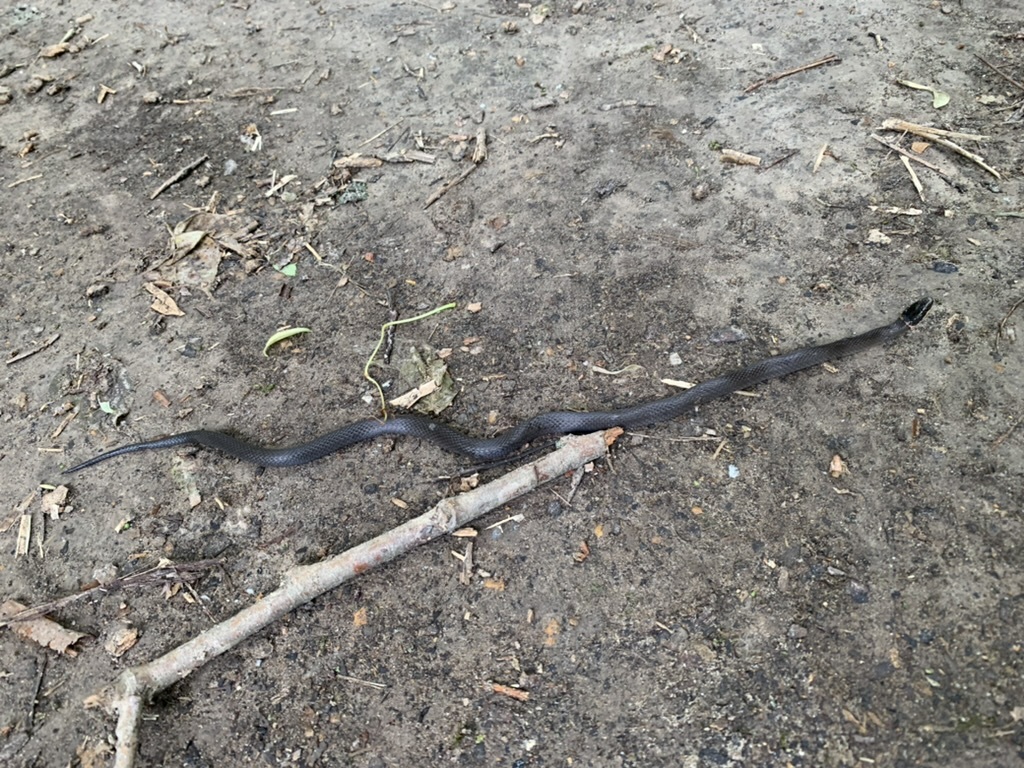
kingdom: Animalia
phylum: Chordata
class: Squamata
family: Colubridae
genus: Diadophis
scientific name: Diadophis punctatus
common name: Ringneck snake
